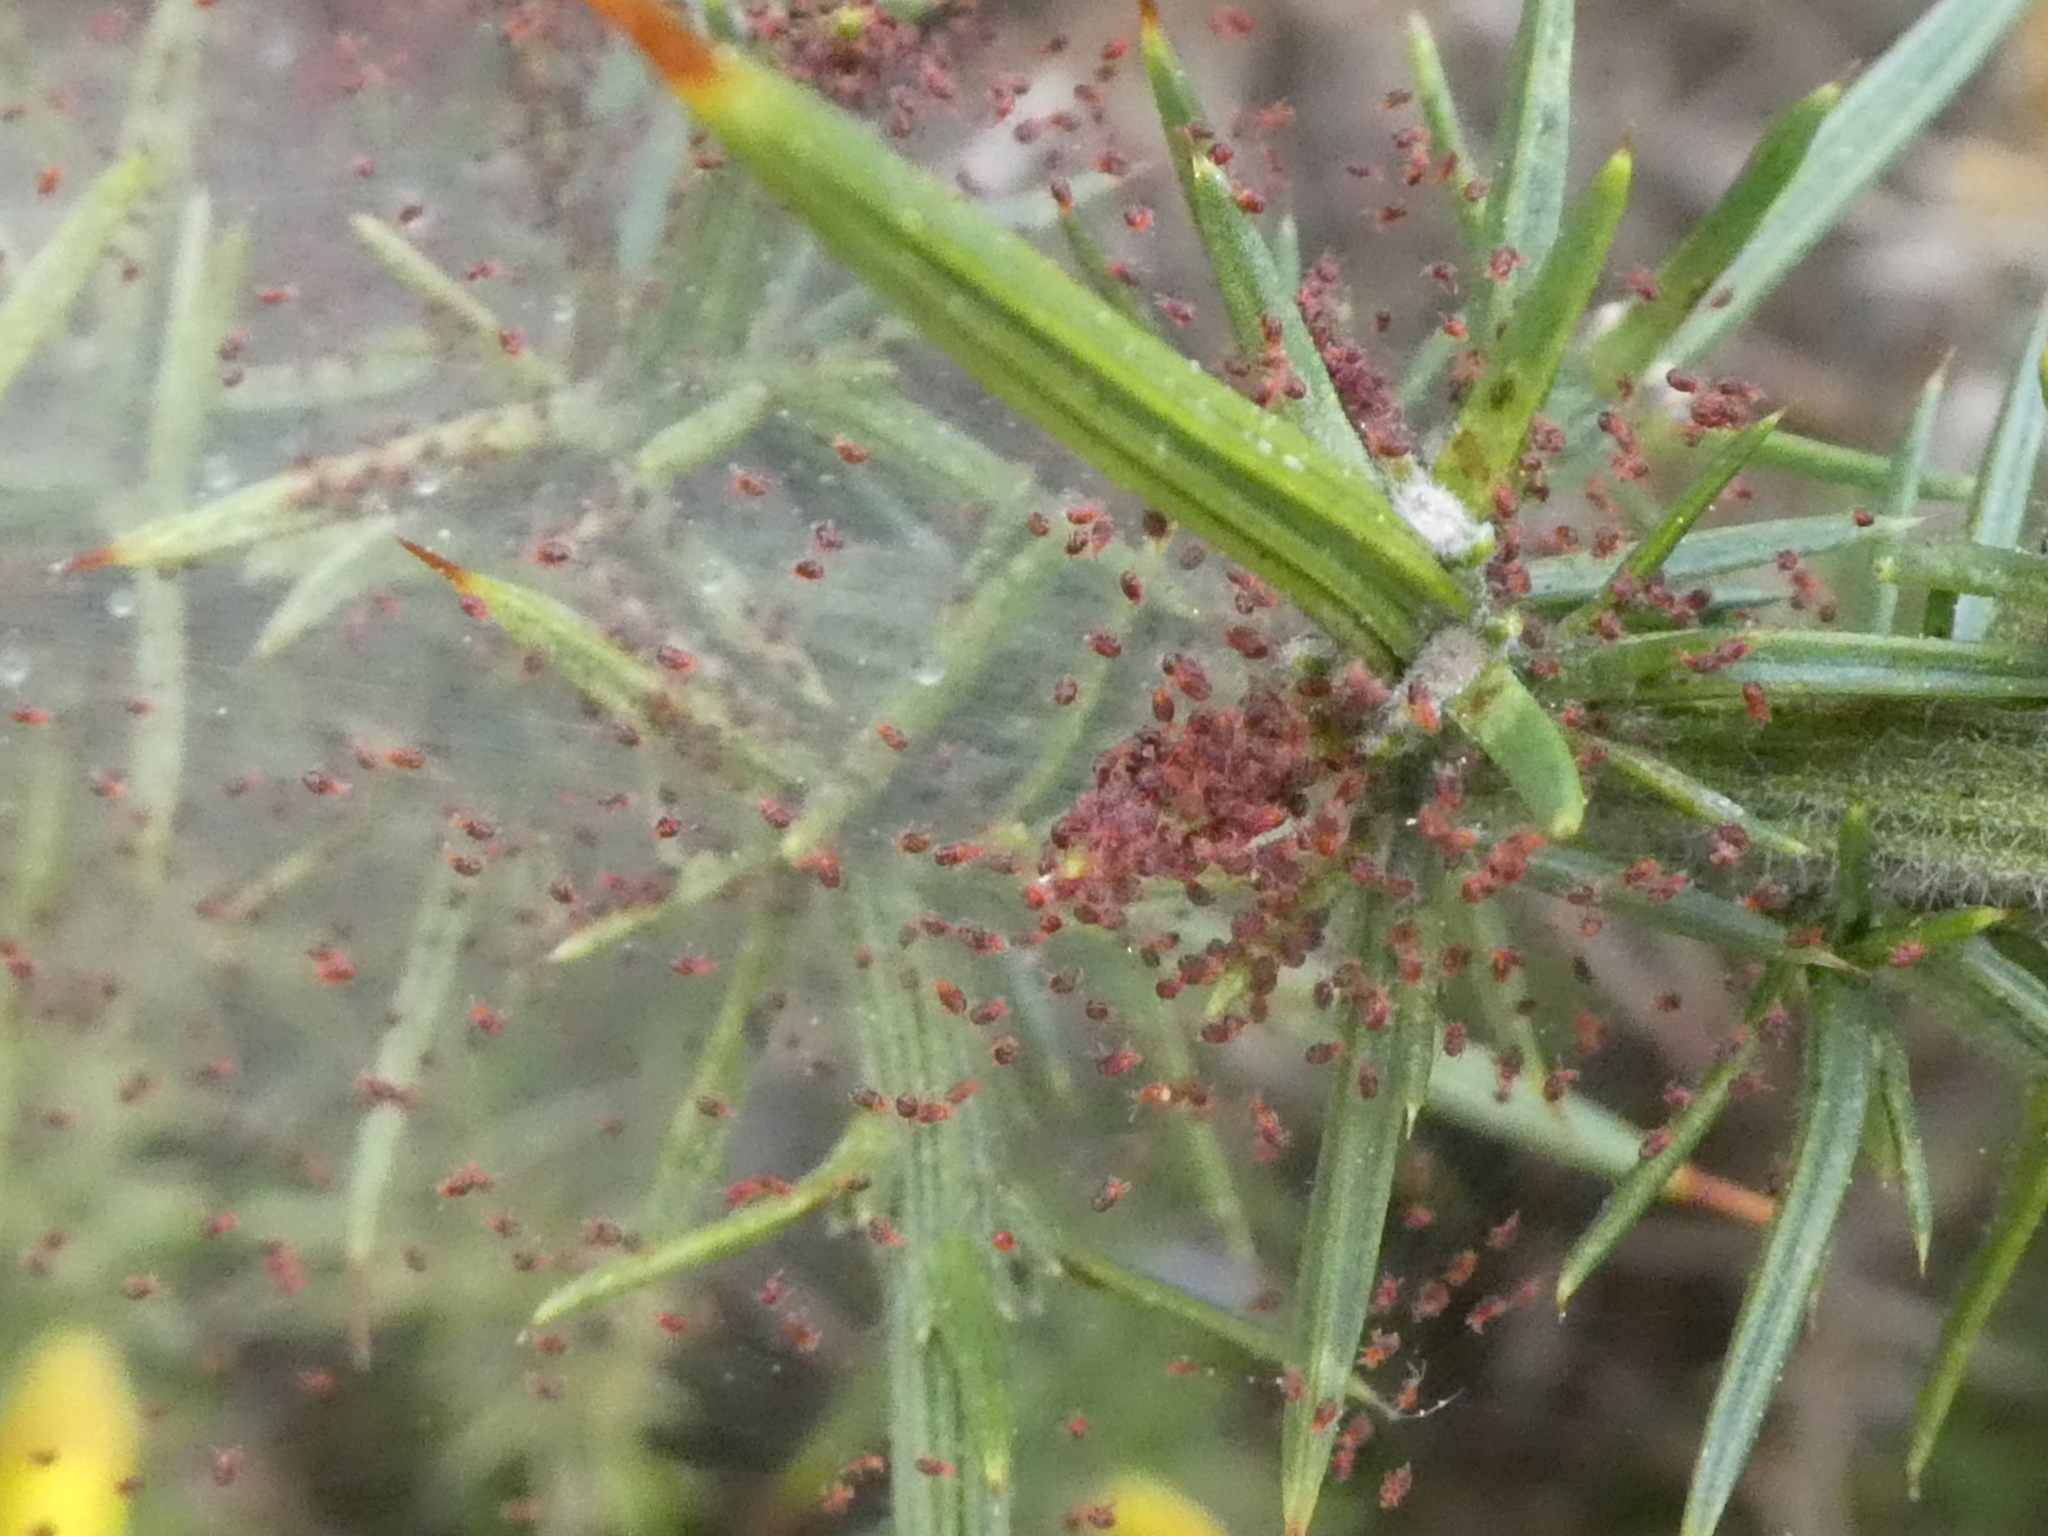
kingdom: Animalia
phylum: Arthropoda
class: Arachnida
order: Trombidiformes
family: Tetranychidae
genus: Tetranychus
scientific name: Tetranychus lintearius
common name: Gorse spider mite
